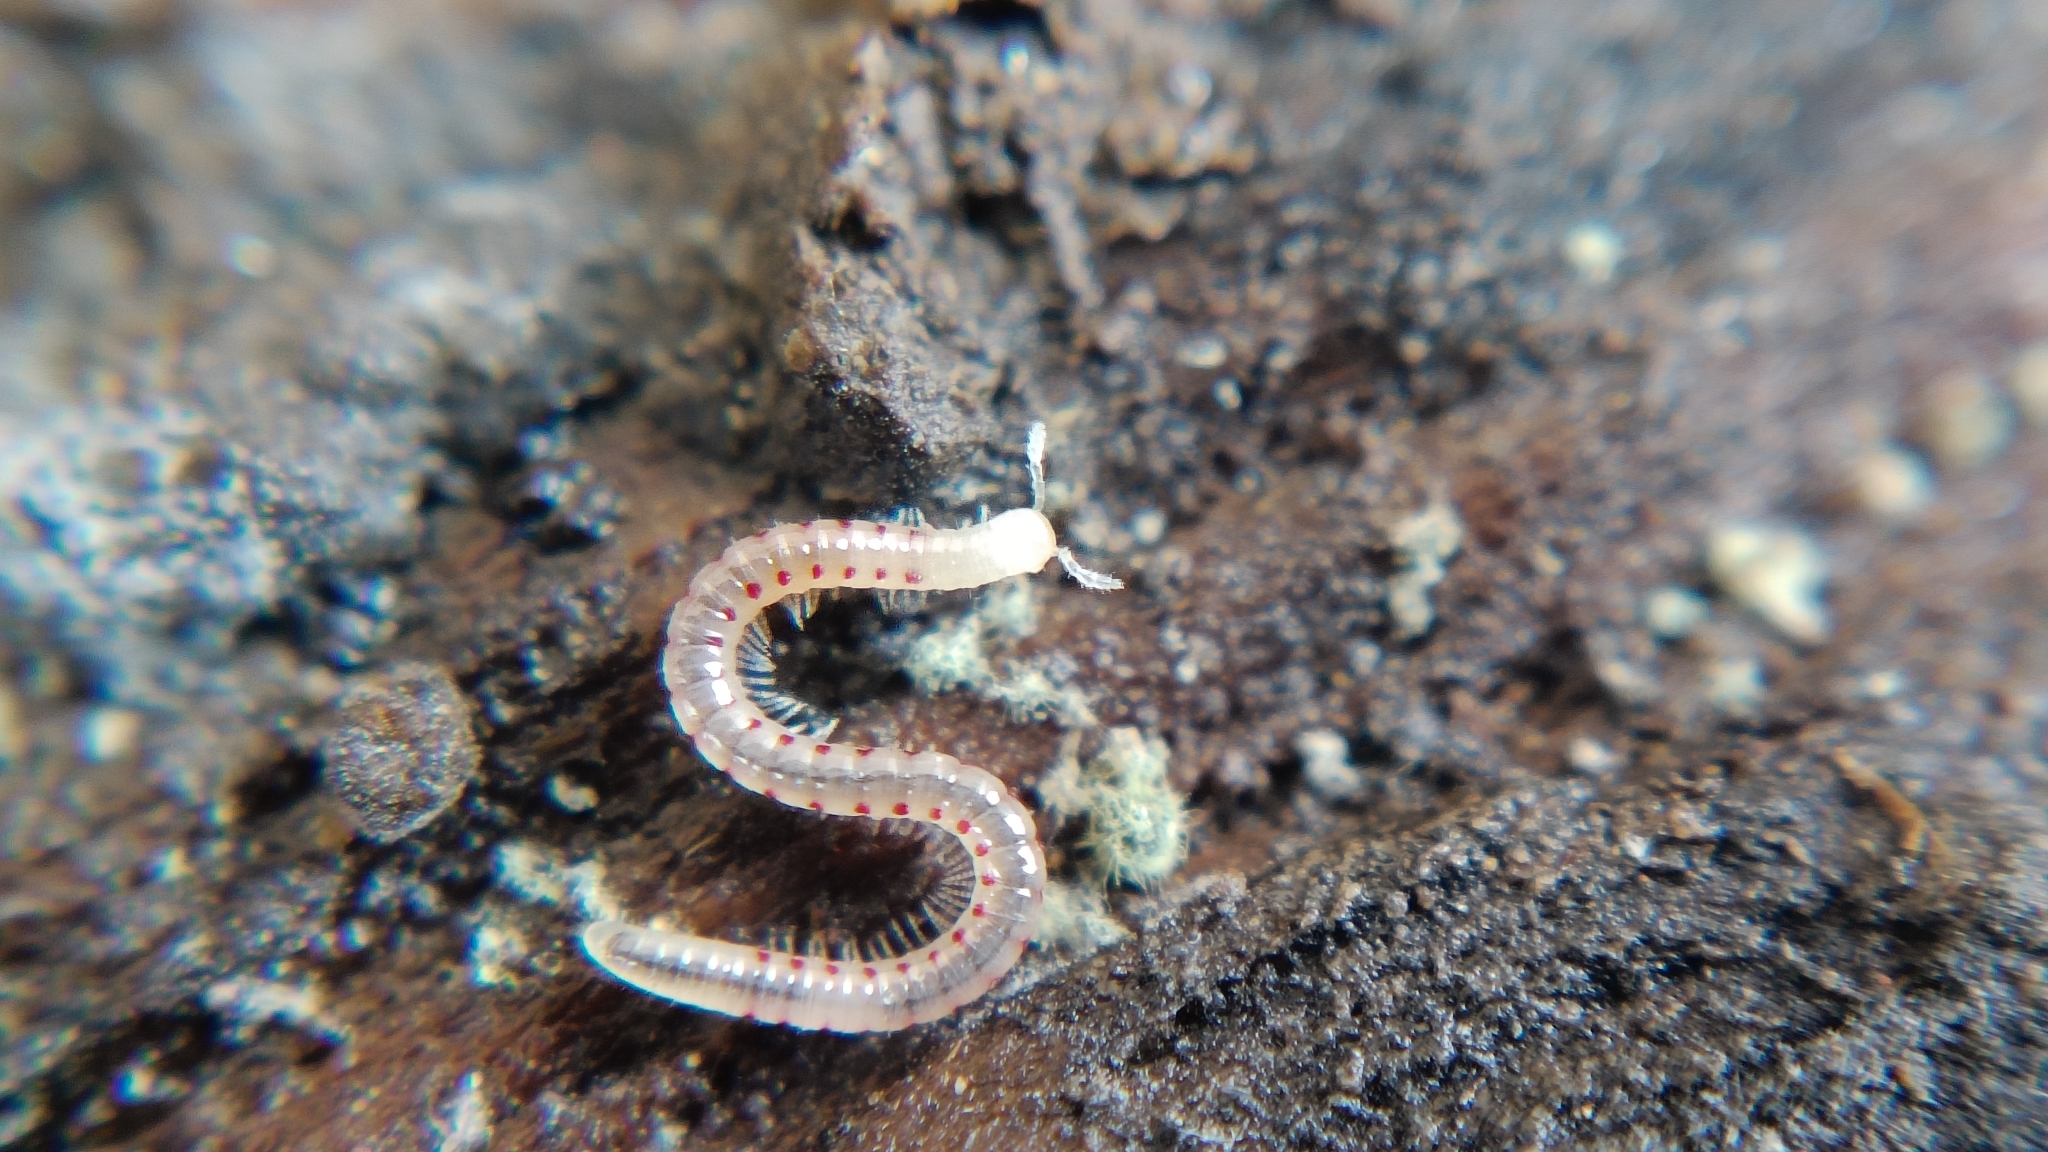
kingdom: Animalia
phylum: Arthropoda
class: Diplopoda
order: Julida
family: Blaniulidae
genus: Blaniulus
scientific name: Blaniulus guttulatus
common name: Spotted snake millipede
